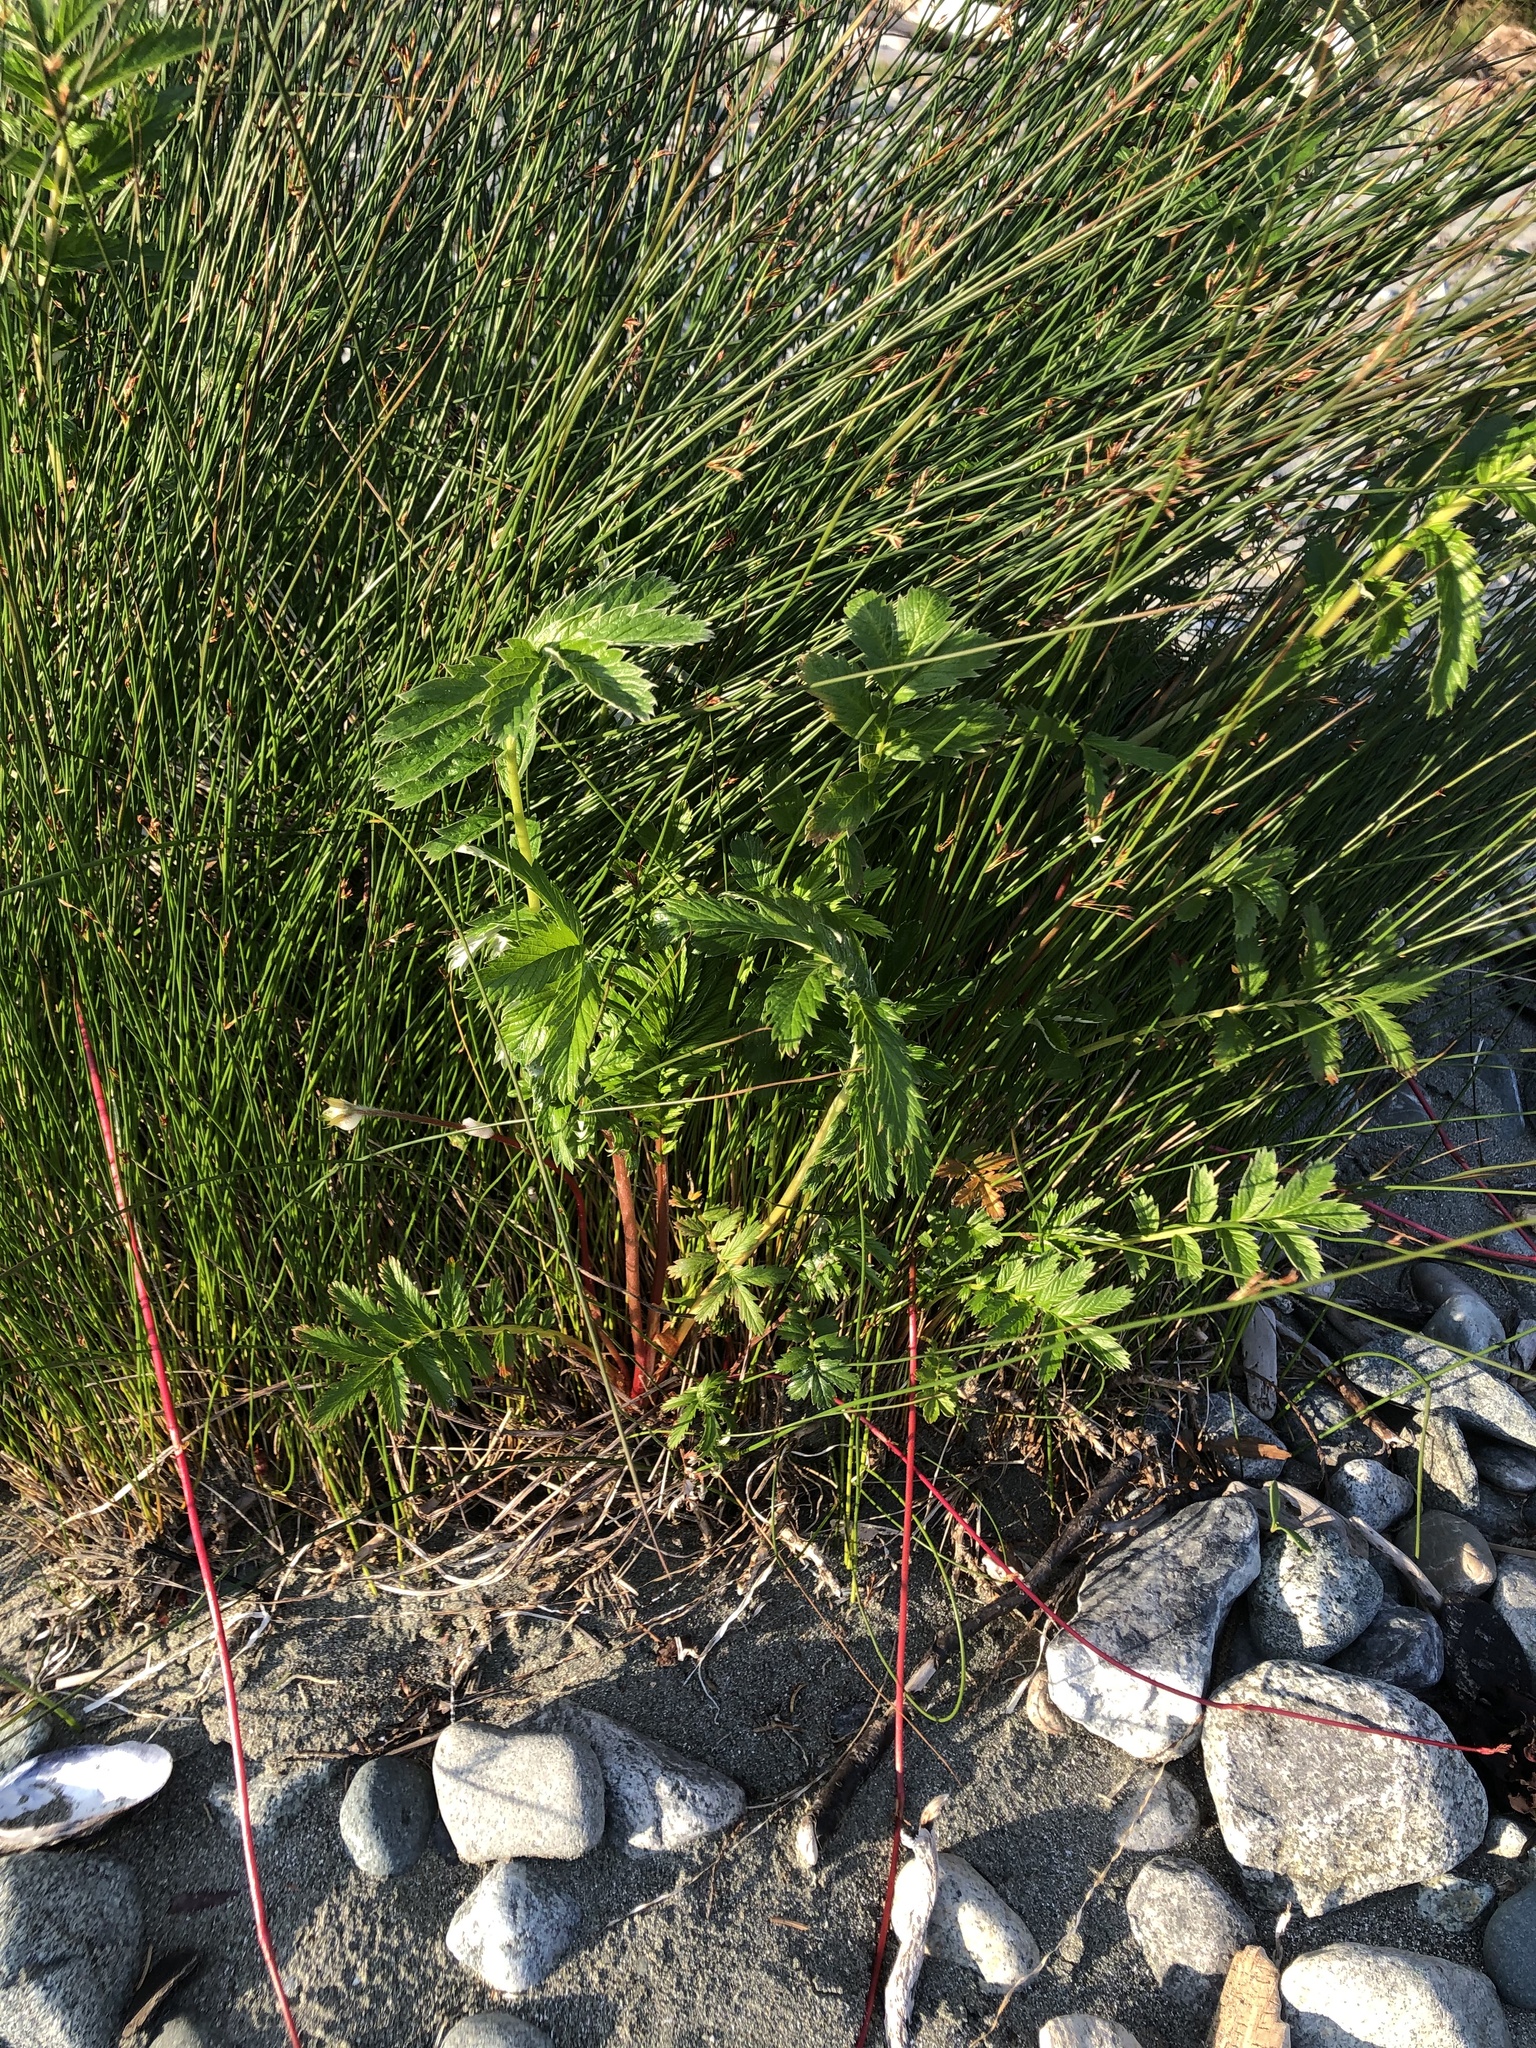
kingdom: Plantae
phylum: Tracheophyta
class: Magnoliopsida
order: Rosales
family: Rosaceae
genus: Argentina
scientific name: Argentina anserina
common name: Common silverweed
